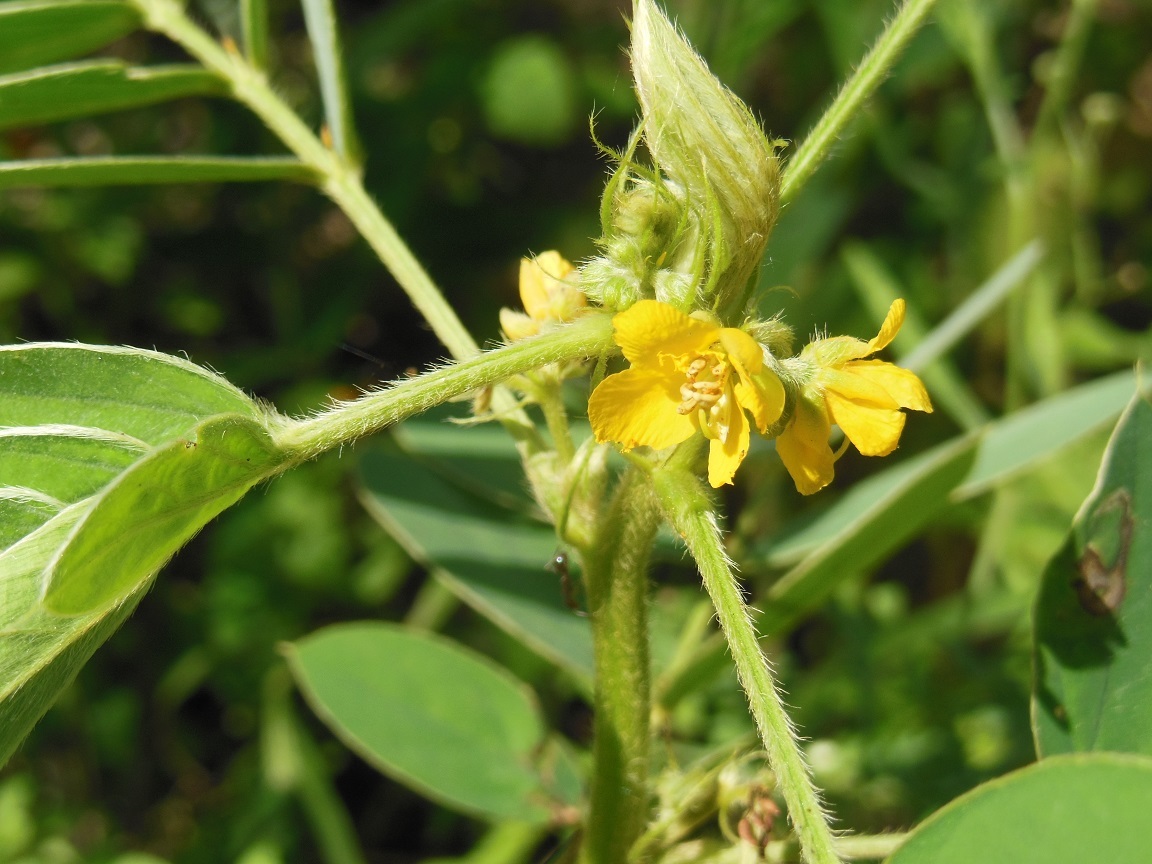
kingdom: Plantae
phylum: Tracheophyta
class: Magnoliopsida
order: Fabales
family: Fabaceae
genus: Senna
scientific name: Senna uniflora
